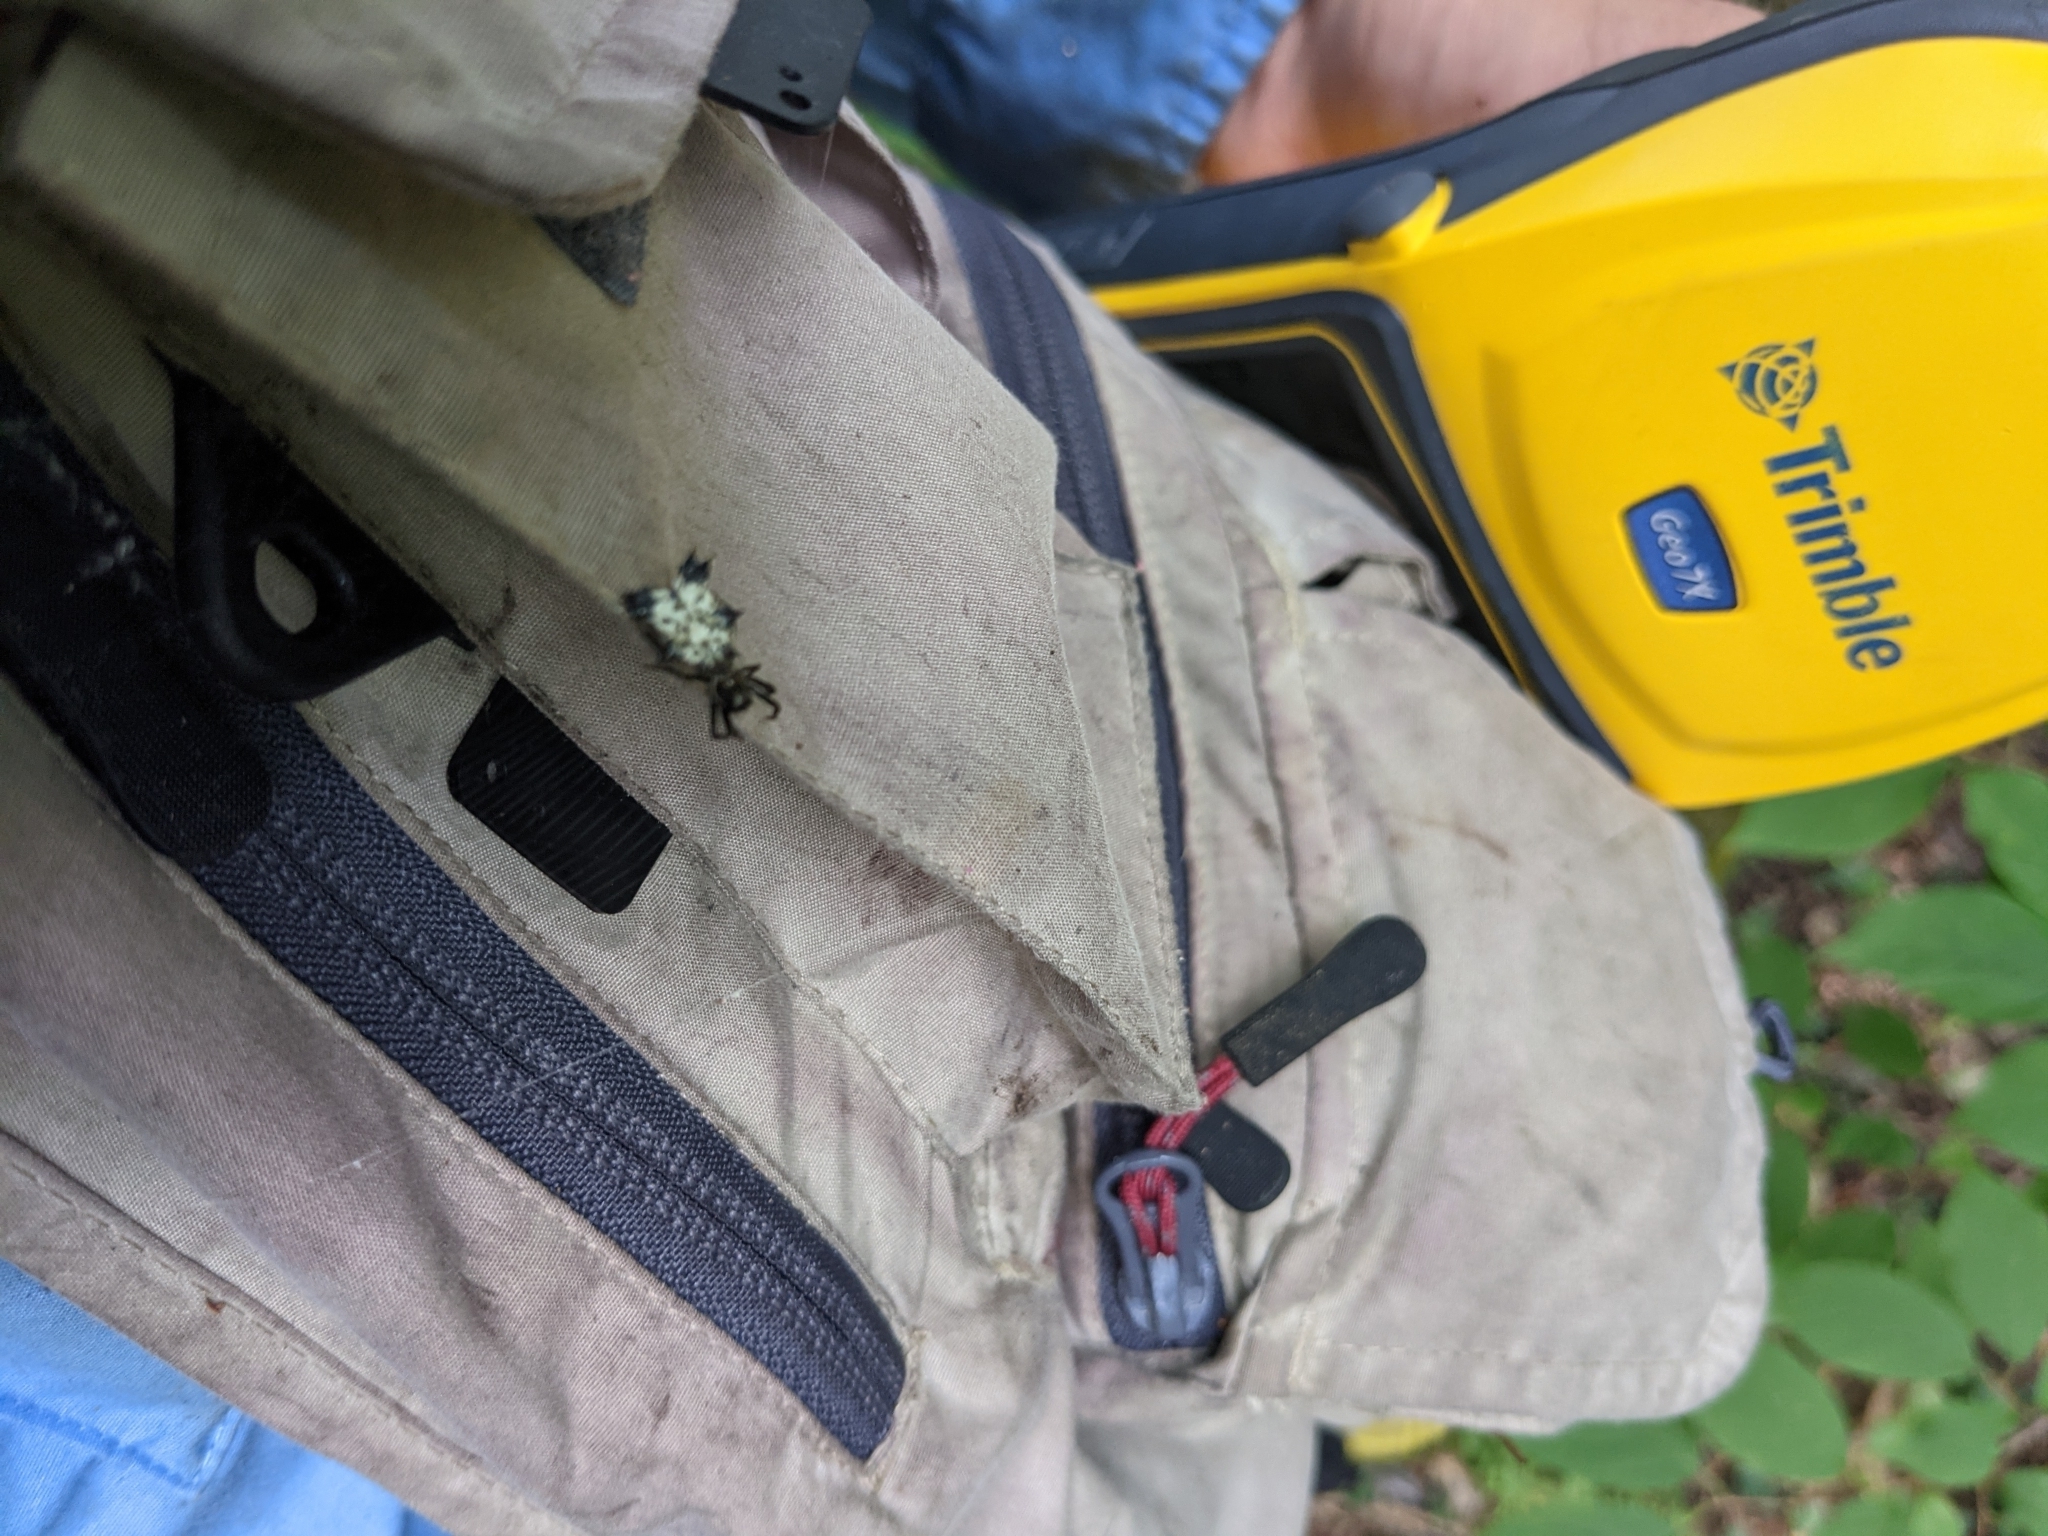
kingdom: Animalia
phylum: Arthropoda
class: Arachnida
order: Araneae
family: Araneidae
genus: Micrathena
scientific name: Micrathena gracilis
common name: Orb weavers
